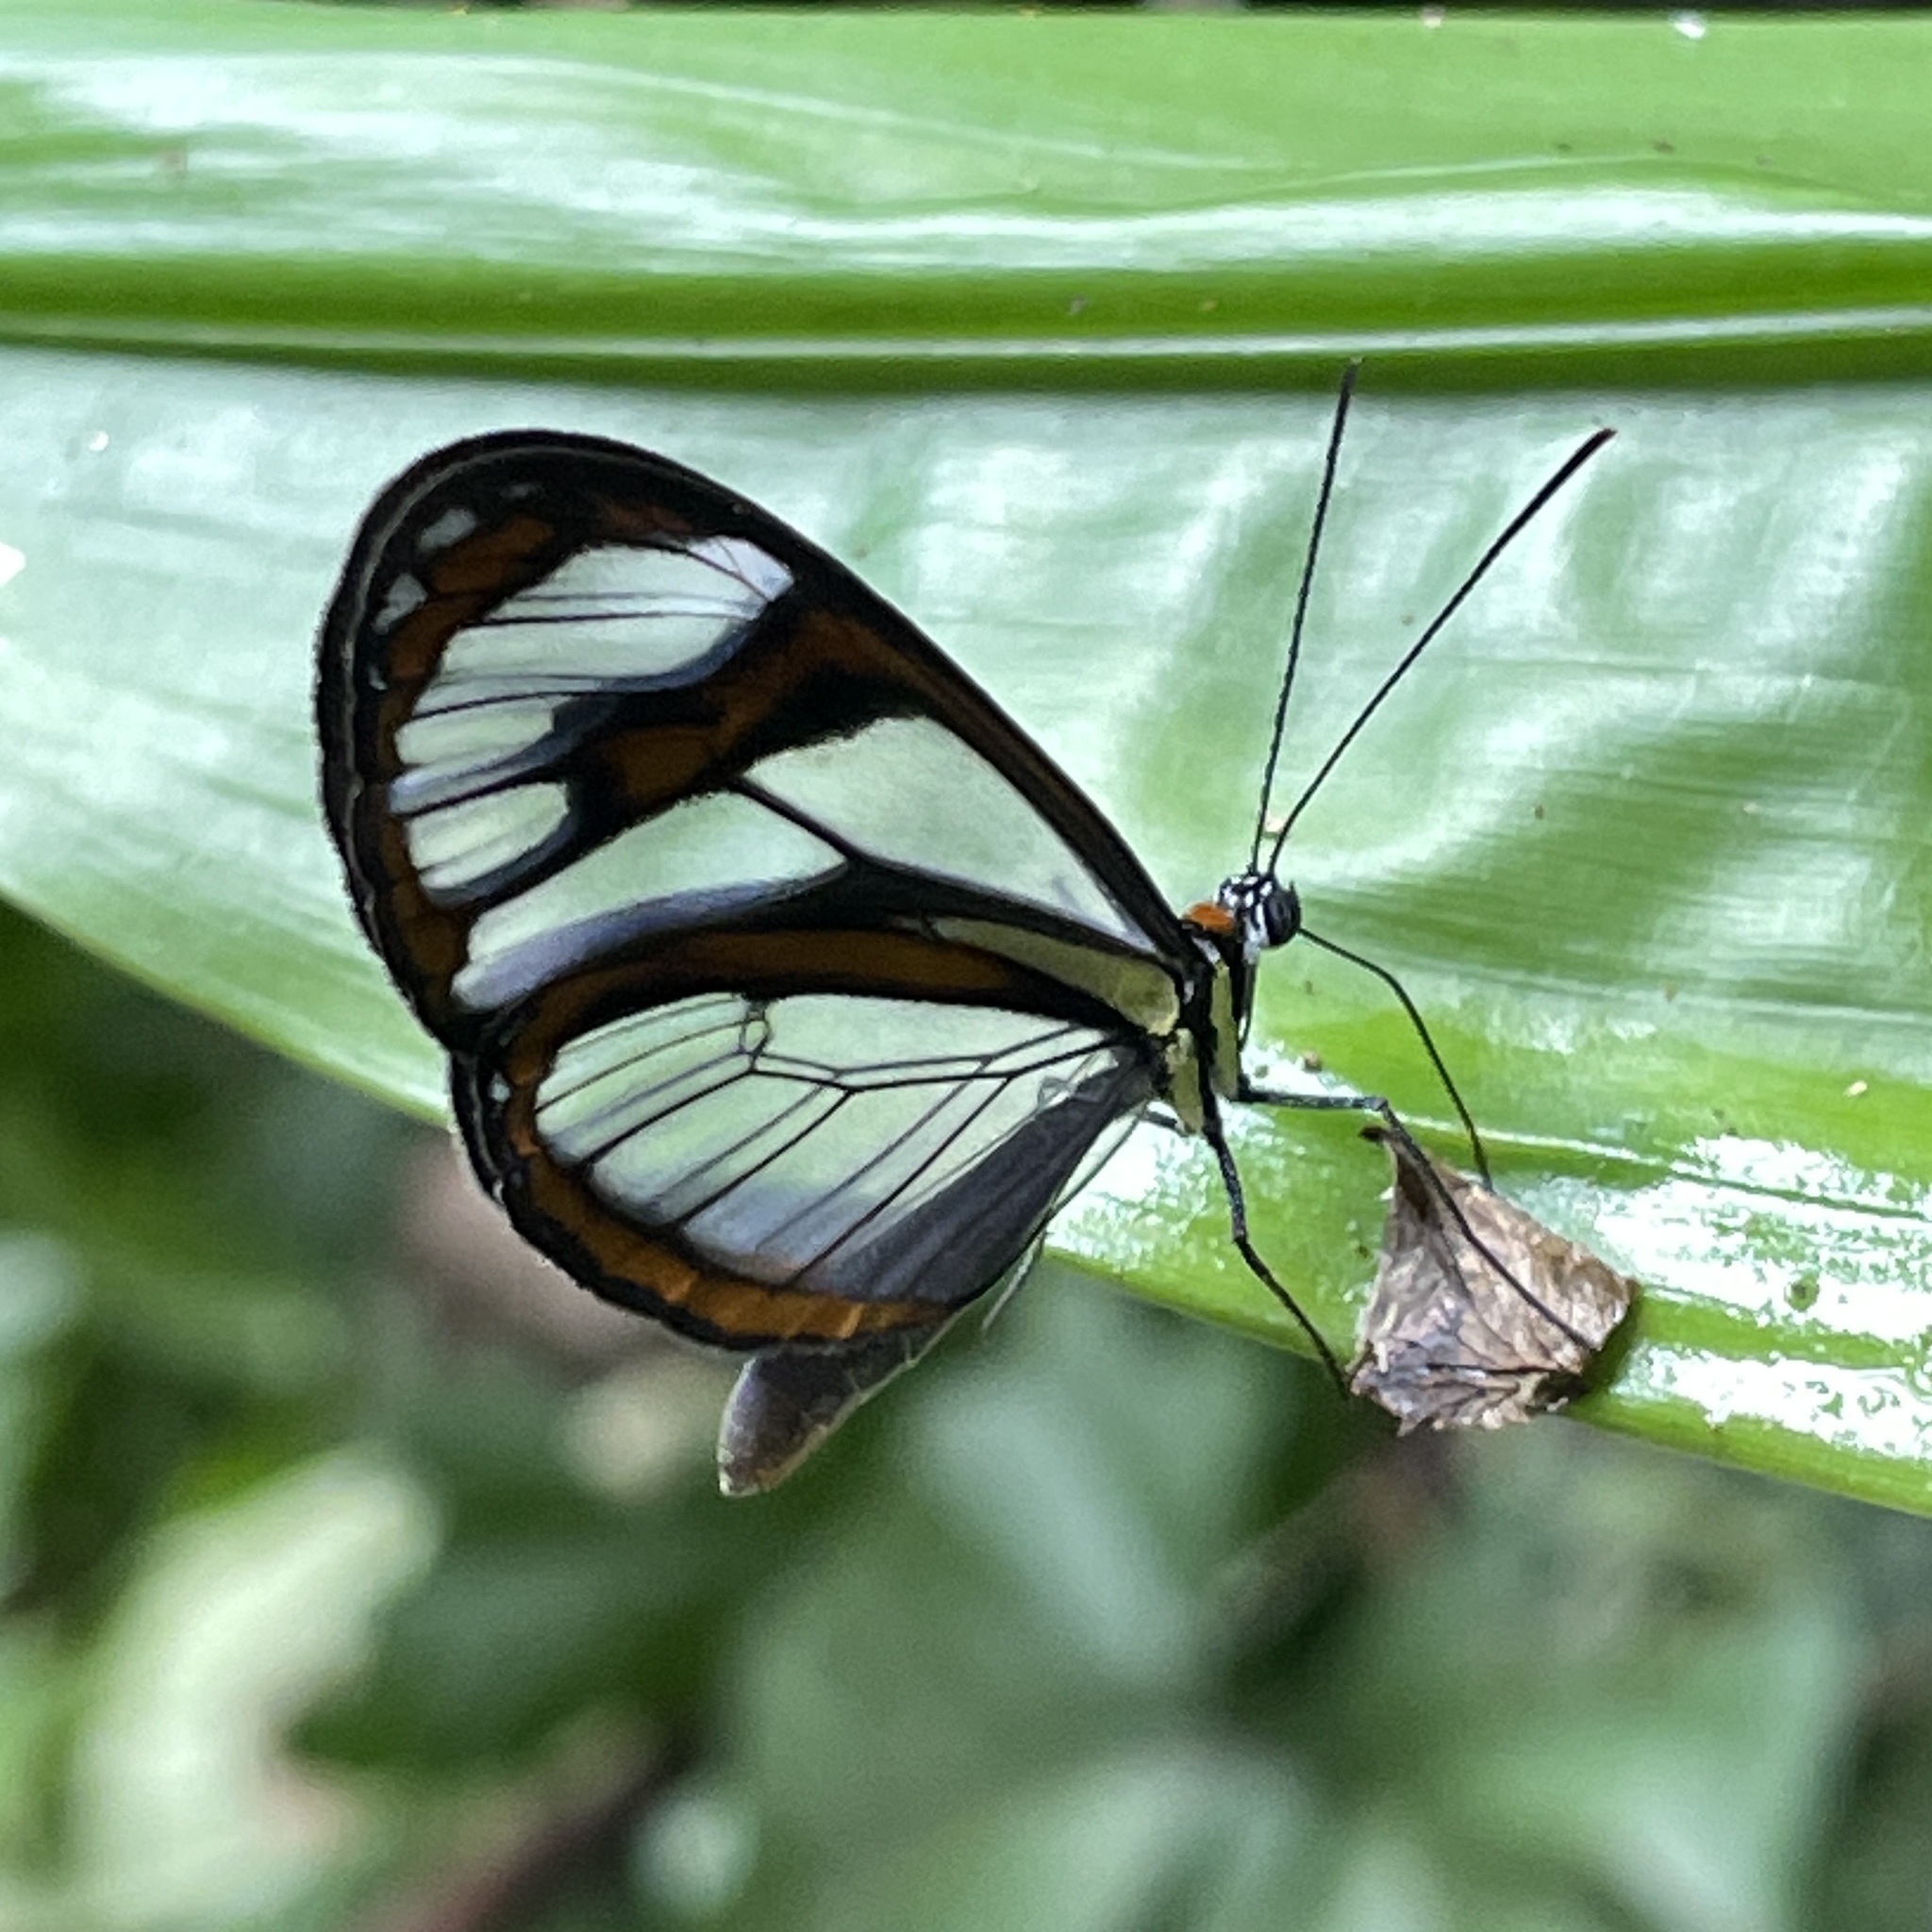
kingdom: Animalia
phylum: Arthropoda
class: Insecta
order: Lepidoptera
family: Nymphalidae
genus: Ithomia
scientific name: Ithomia agnosia
